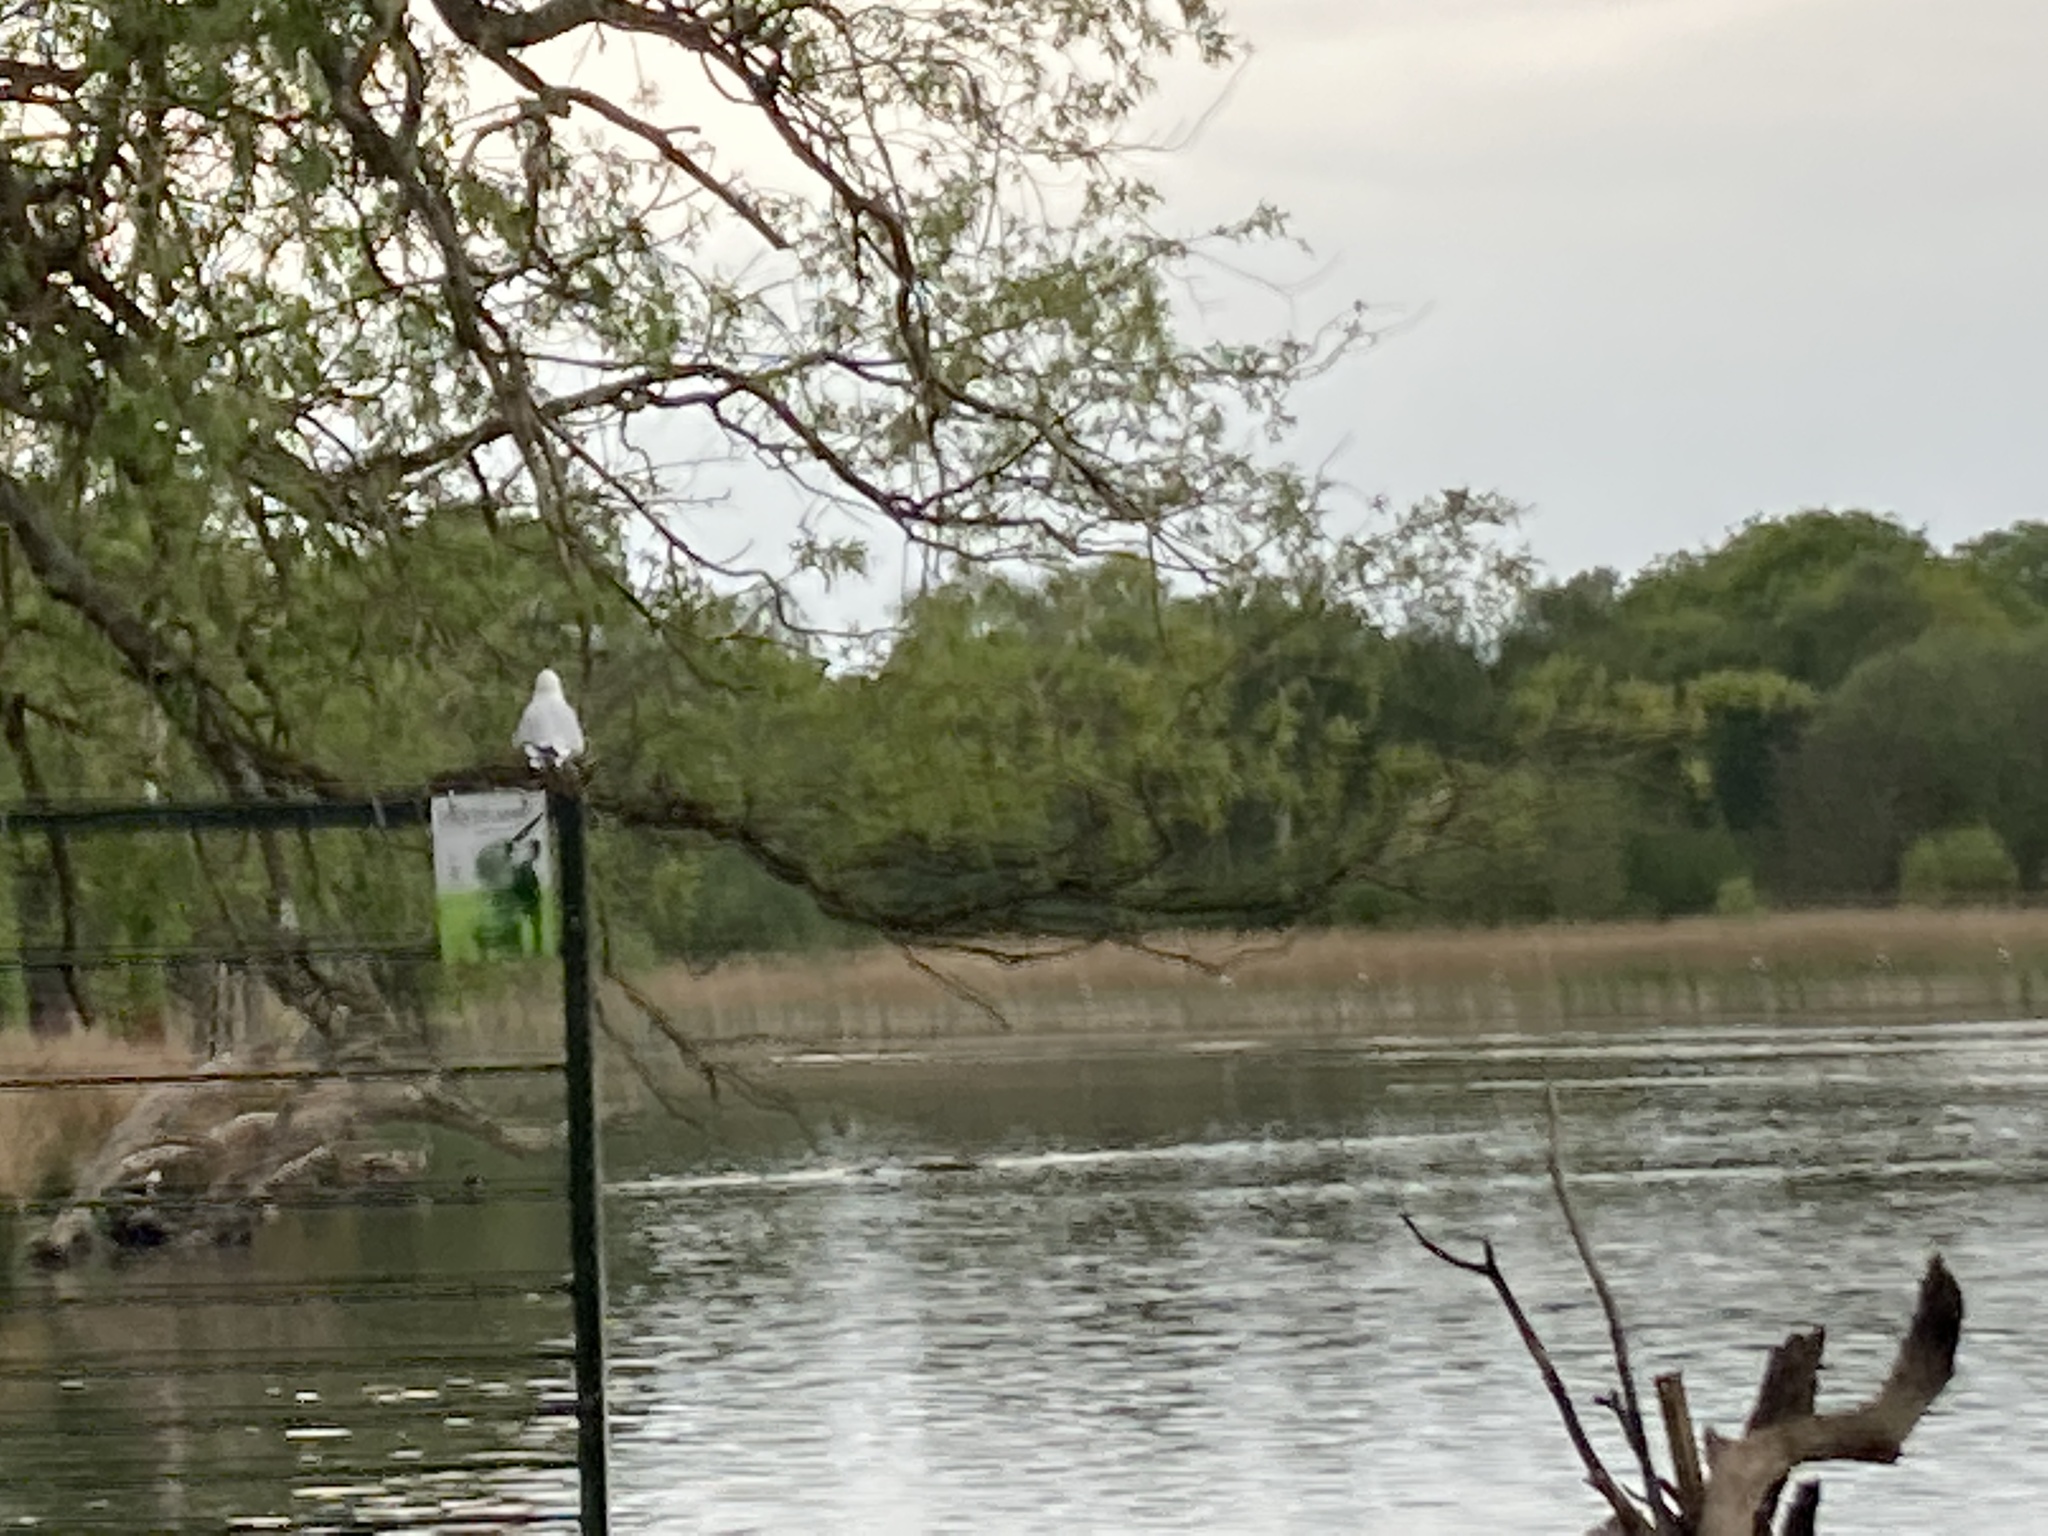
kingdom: Animalia
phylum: Chordata
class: Aves
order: Charadriiformes
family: Laridae
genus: Chroicocephalus
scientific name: Chroicocephalus ridibundus
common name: Black-headed gull
